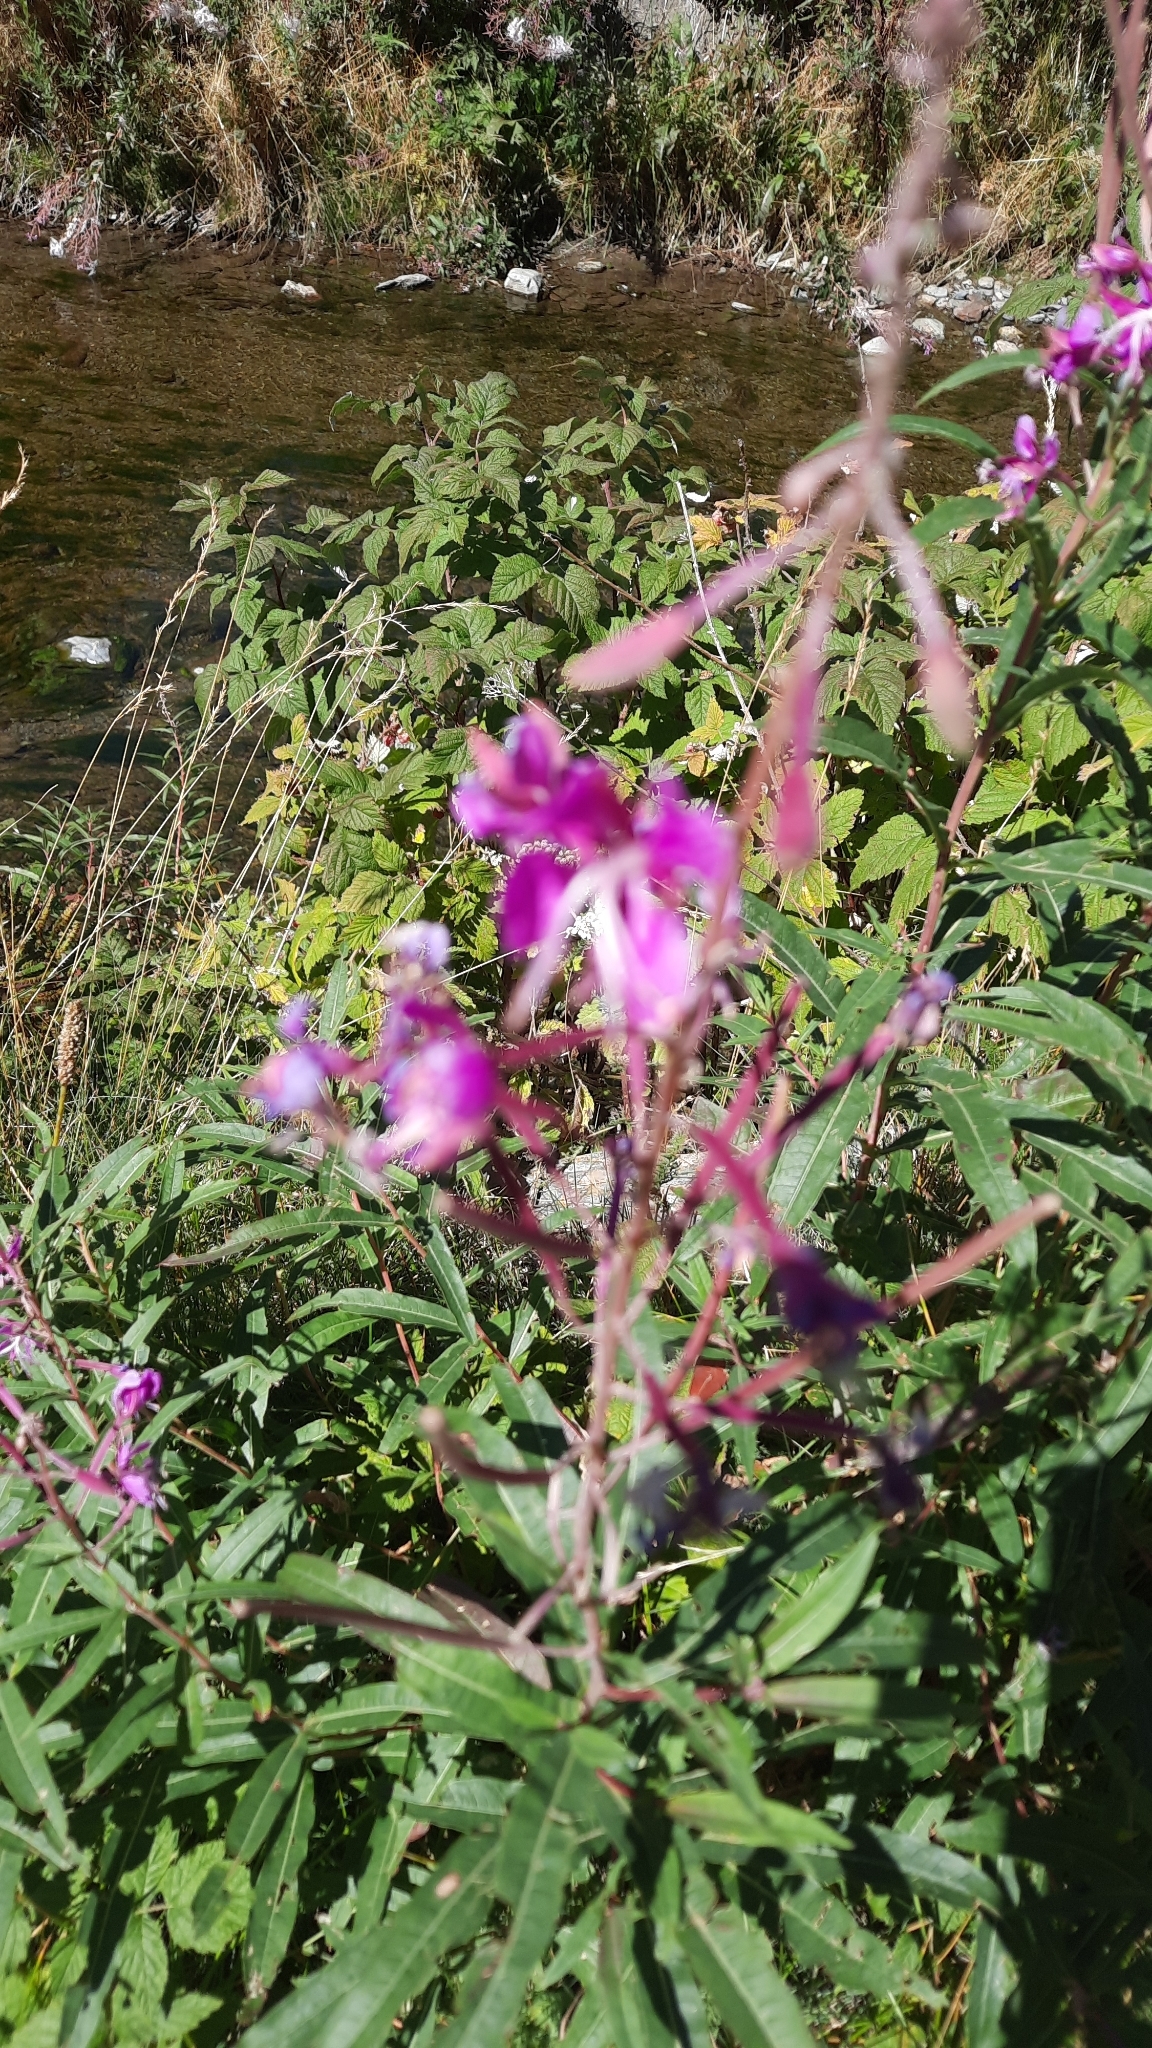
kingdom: Plantae
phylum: Tracheophyta
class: Magnoliopsida
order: Myrtales
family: Onagraceae
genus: Chamaenerion
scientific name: Chamaenerion angustifolium
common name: Fireweed
